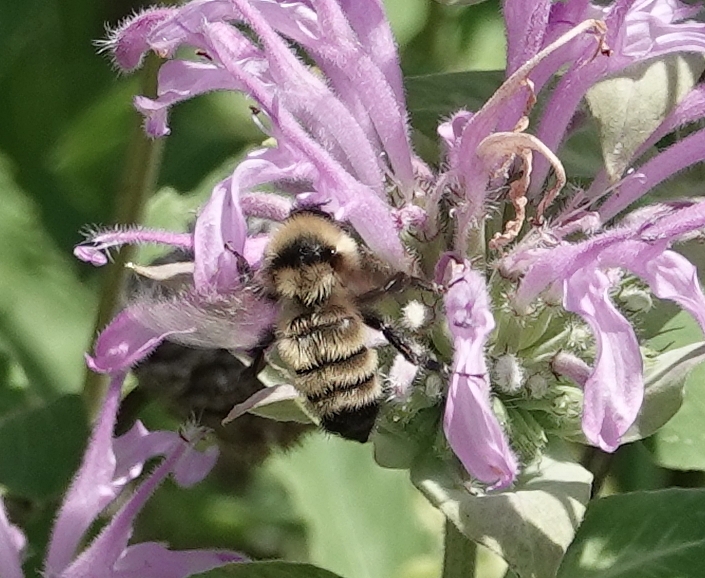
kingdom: Animalia
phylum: Arthropoda
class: Insecta
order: Hymenoptera
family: Apidae
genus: Bombus
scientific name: Bombus fervidus
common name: Yellow bumble bee
